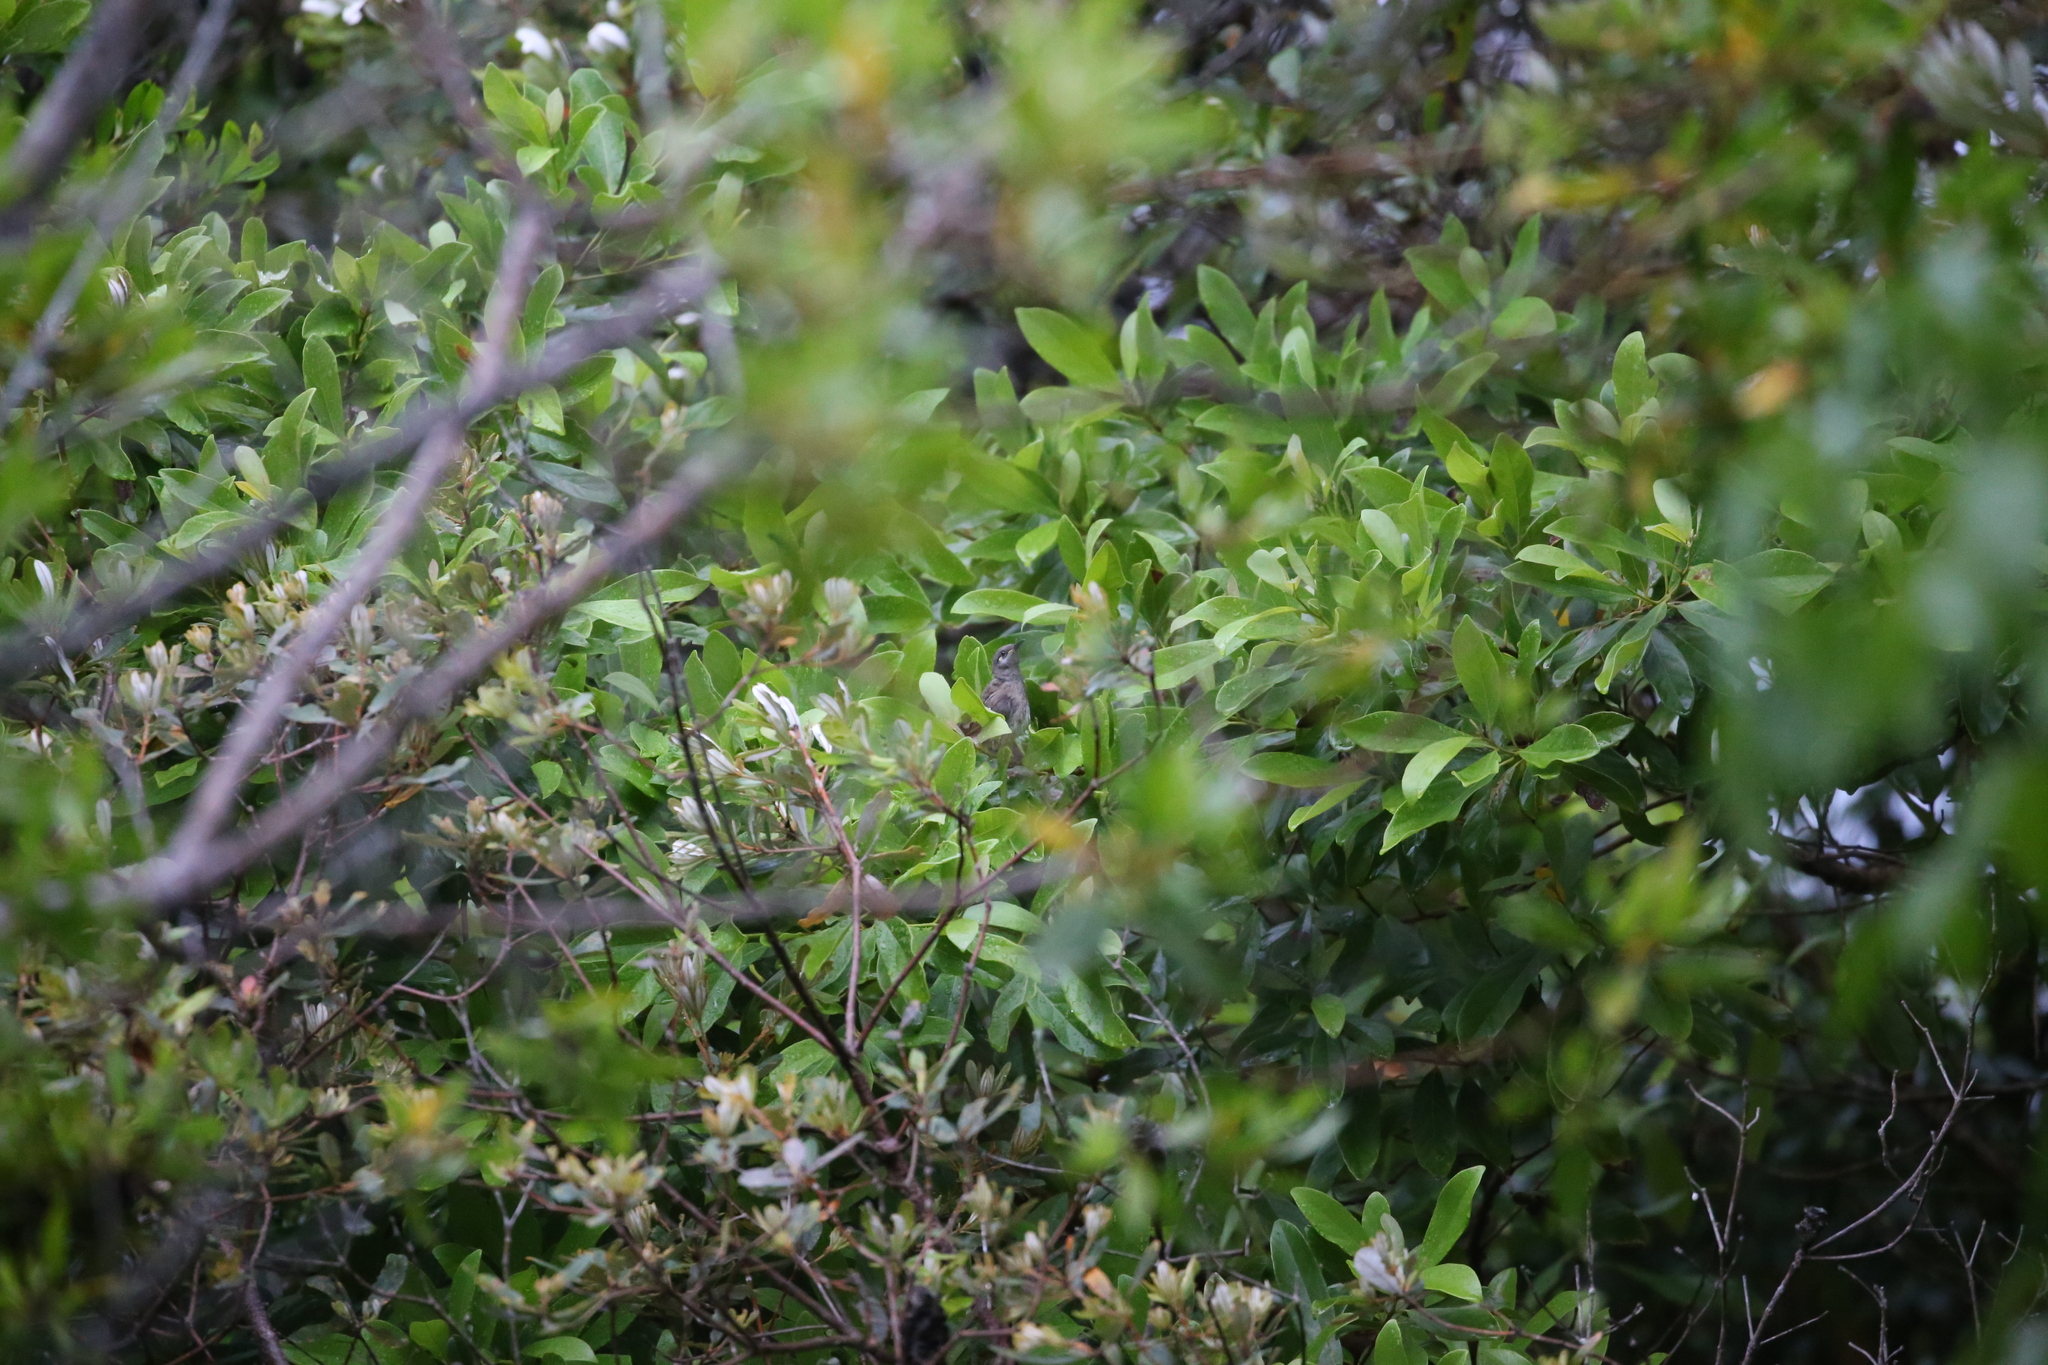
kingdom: Animalia
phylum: Chordata
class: Aves
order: Passeriformes
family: Meliphagidae
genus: Lichmera
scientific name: Lichmera indistincta
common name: Brown honeyeater
